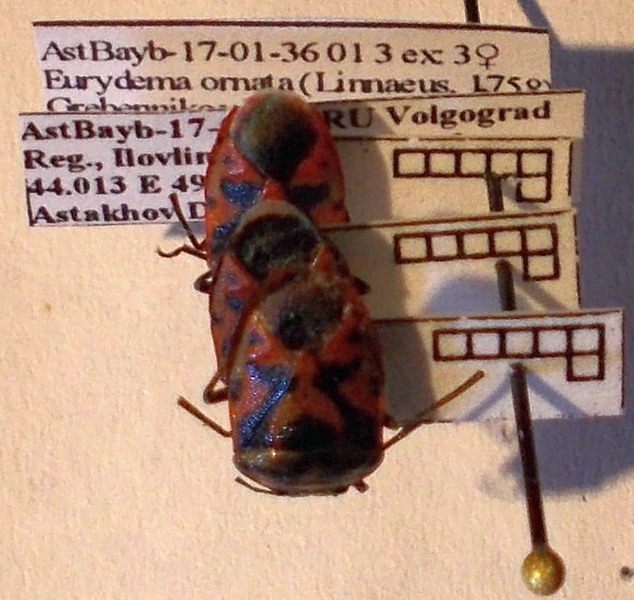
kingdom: Animalia
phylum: Arthropoda
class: Insecta
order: Hemiptera
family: Pentatomidae
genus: Eurydema
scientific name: Eurydema ornata
